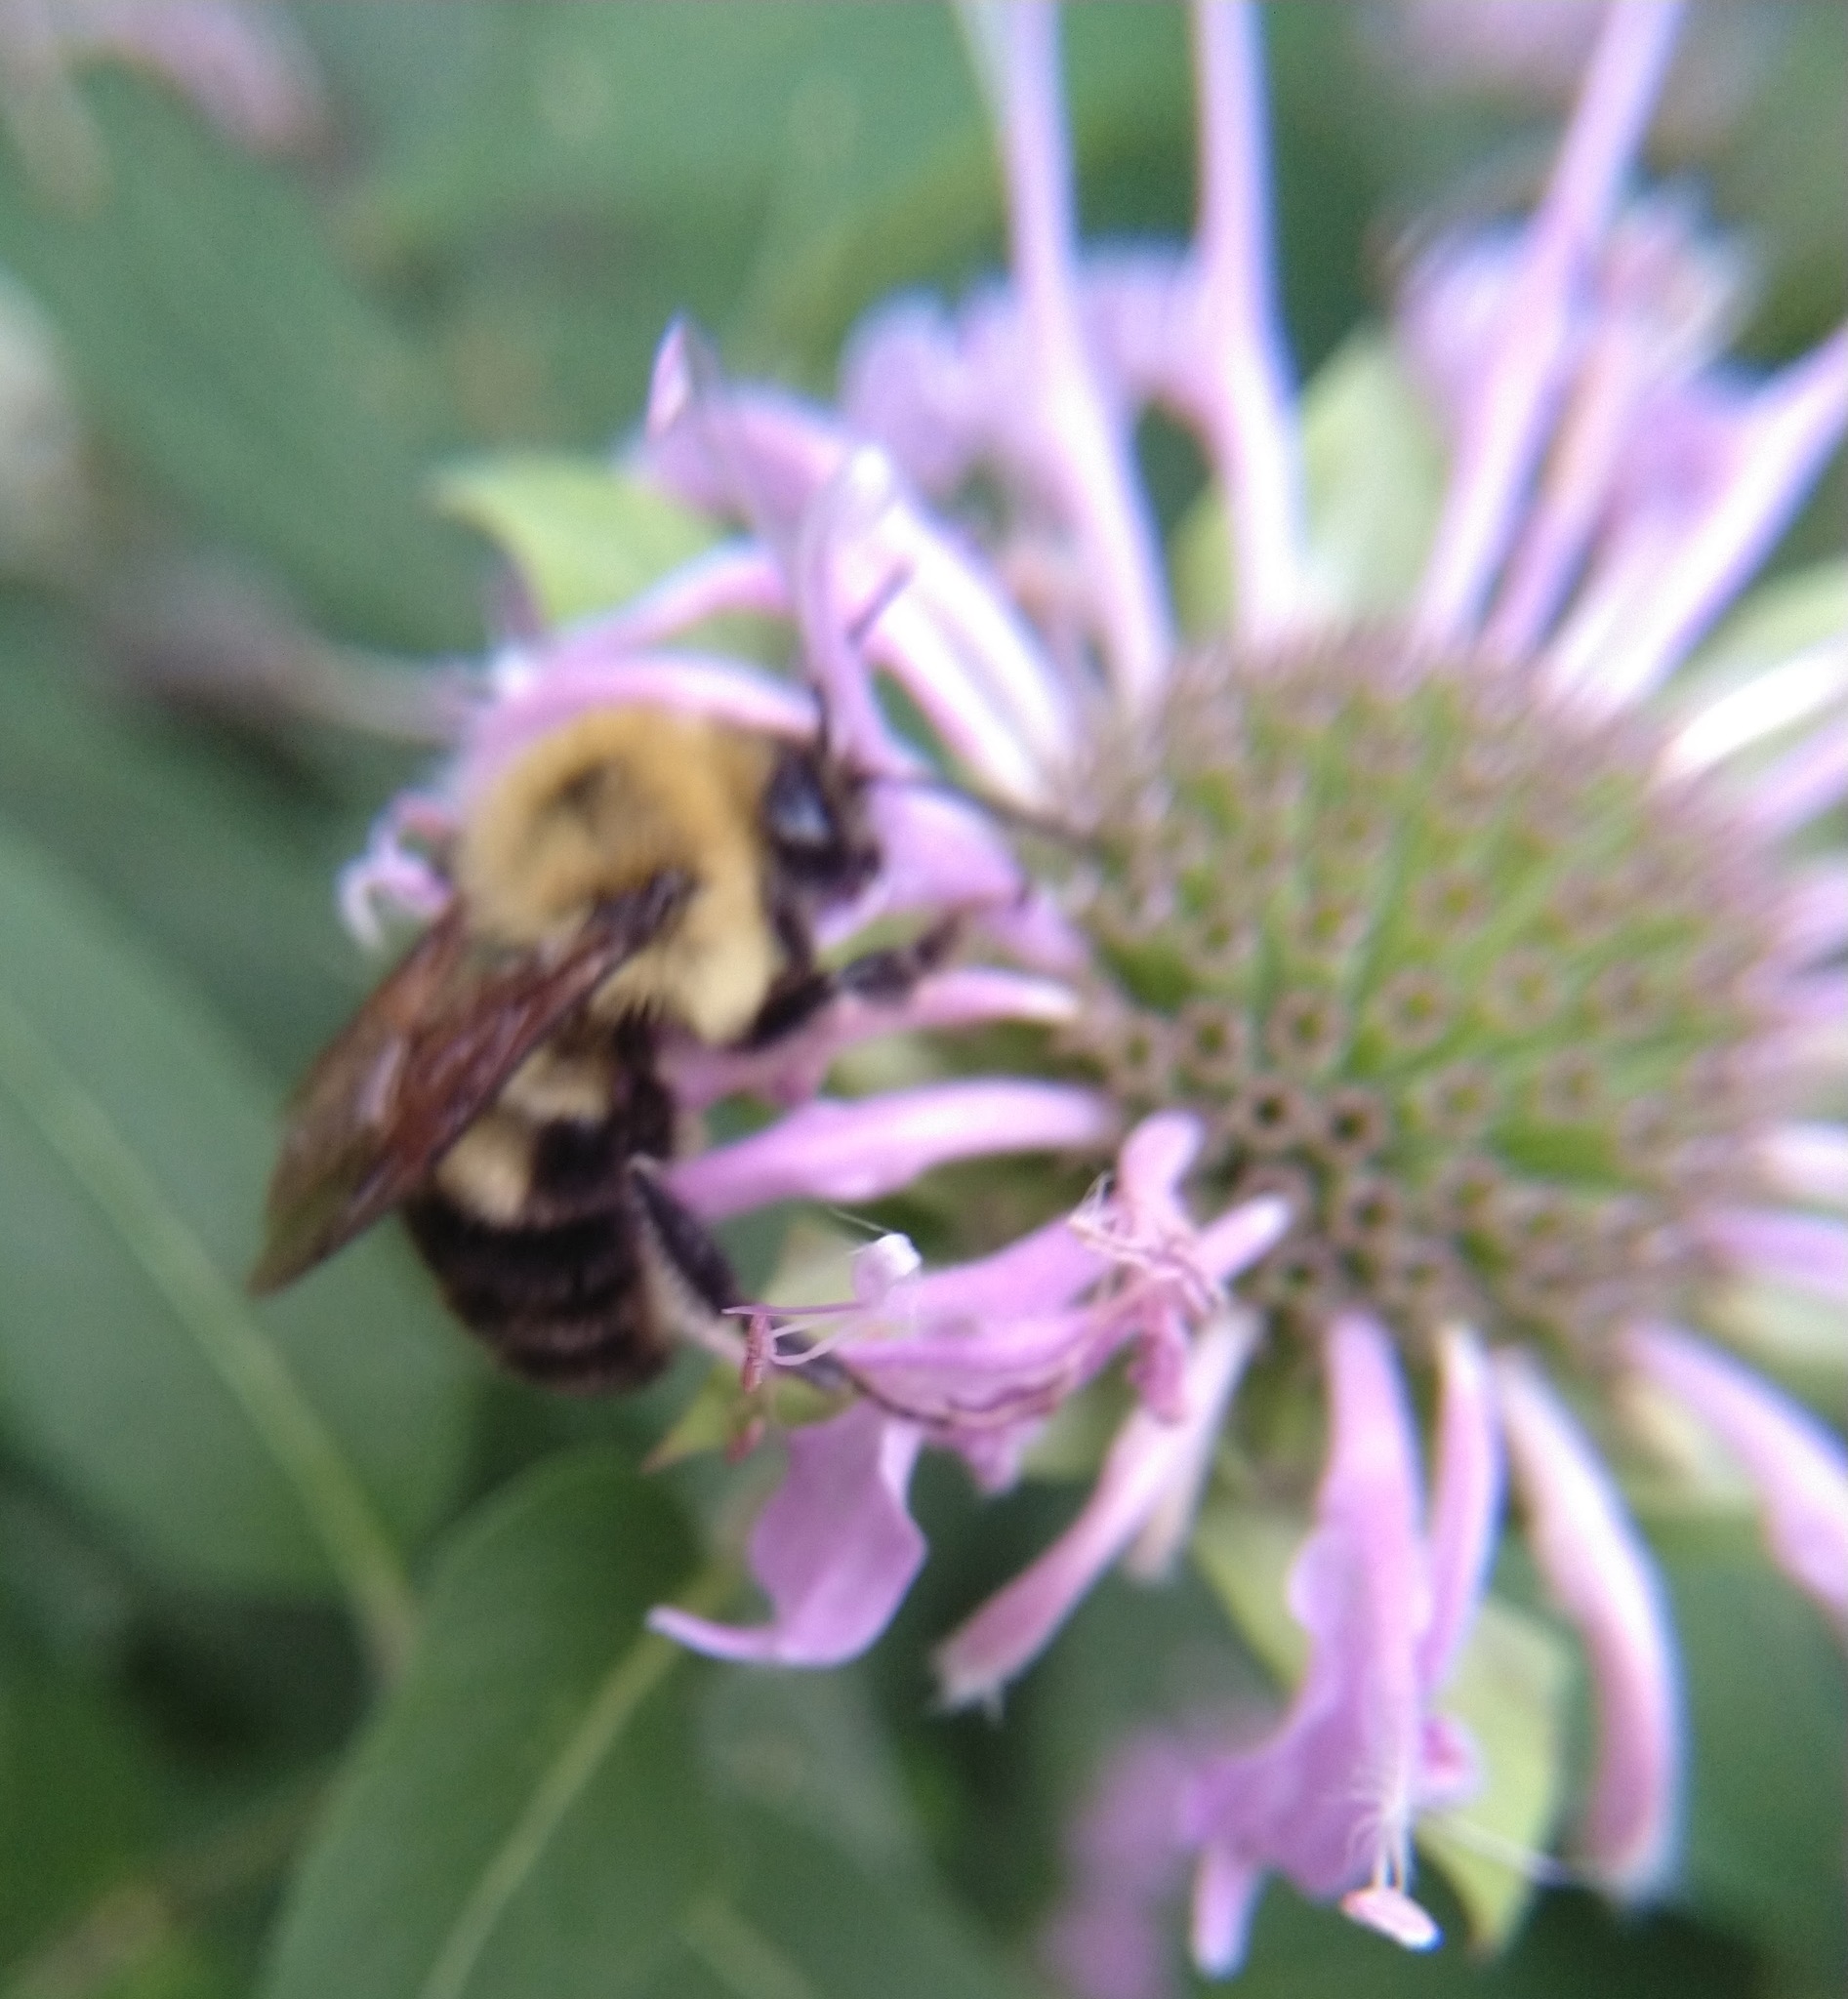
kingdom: Animalia
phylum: Arthropoda
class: Insecta
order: Hymenoptera
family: Apidae
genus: Bombus
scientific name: Bombus bimaculatus
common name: Two-spotted bumble bee
